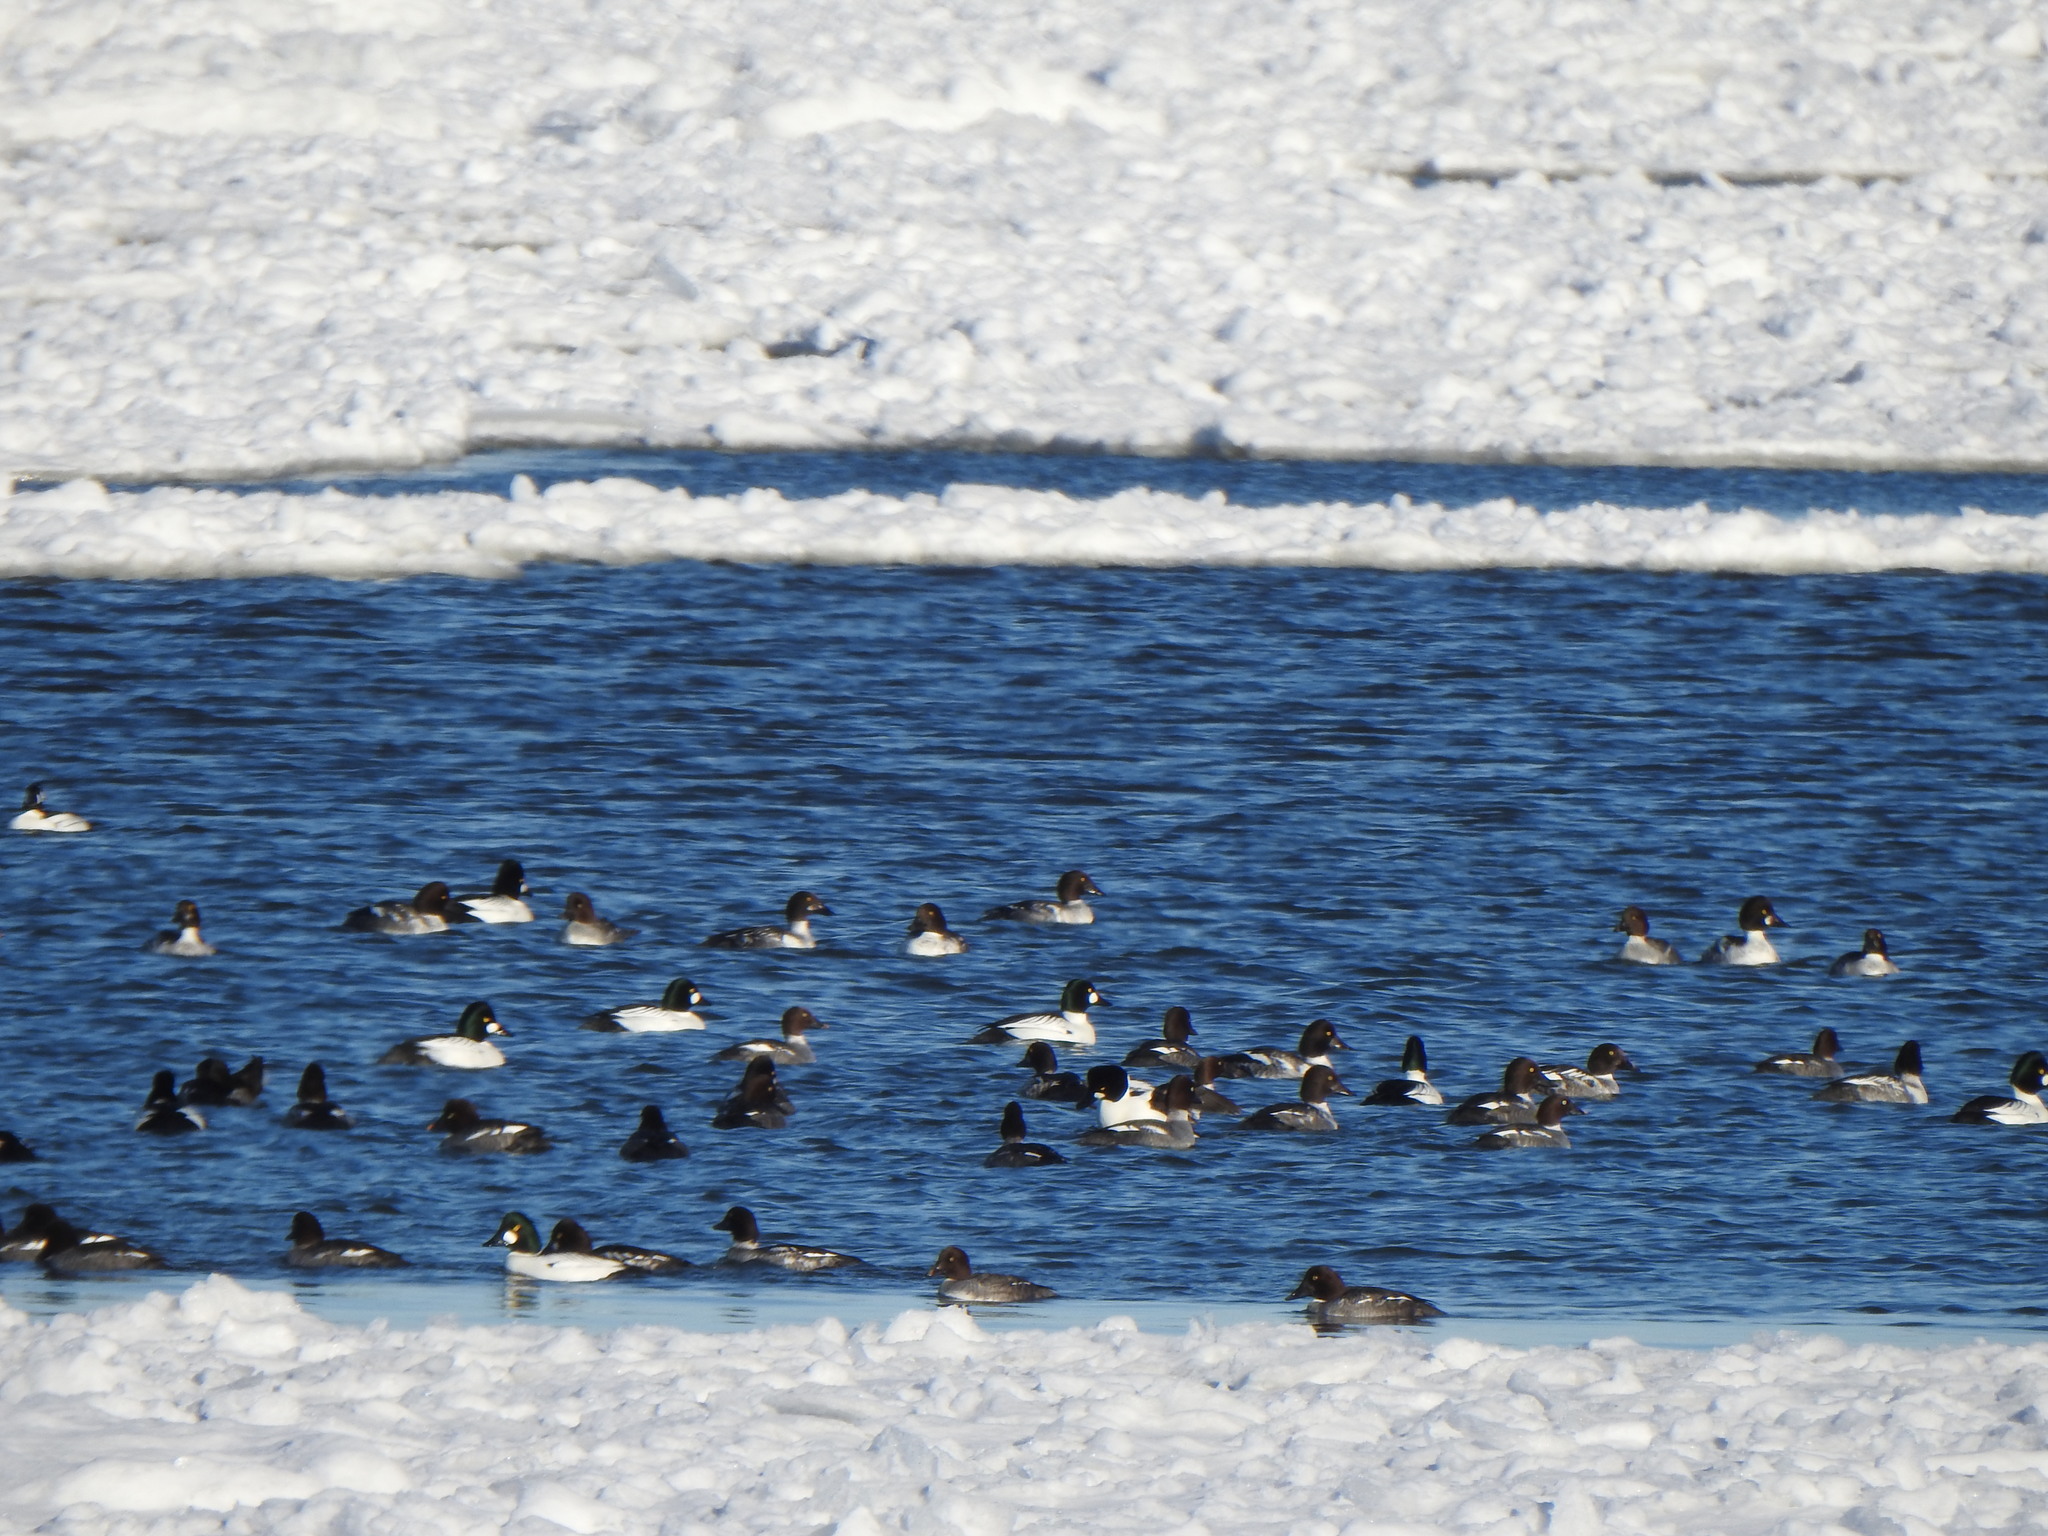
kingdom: Animalia
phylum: Chordata
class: Aves
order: Anseriformes
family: Anatidae
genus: Bucephala
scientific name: Bucephala clangula
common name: Common goldeneye
